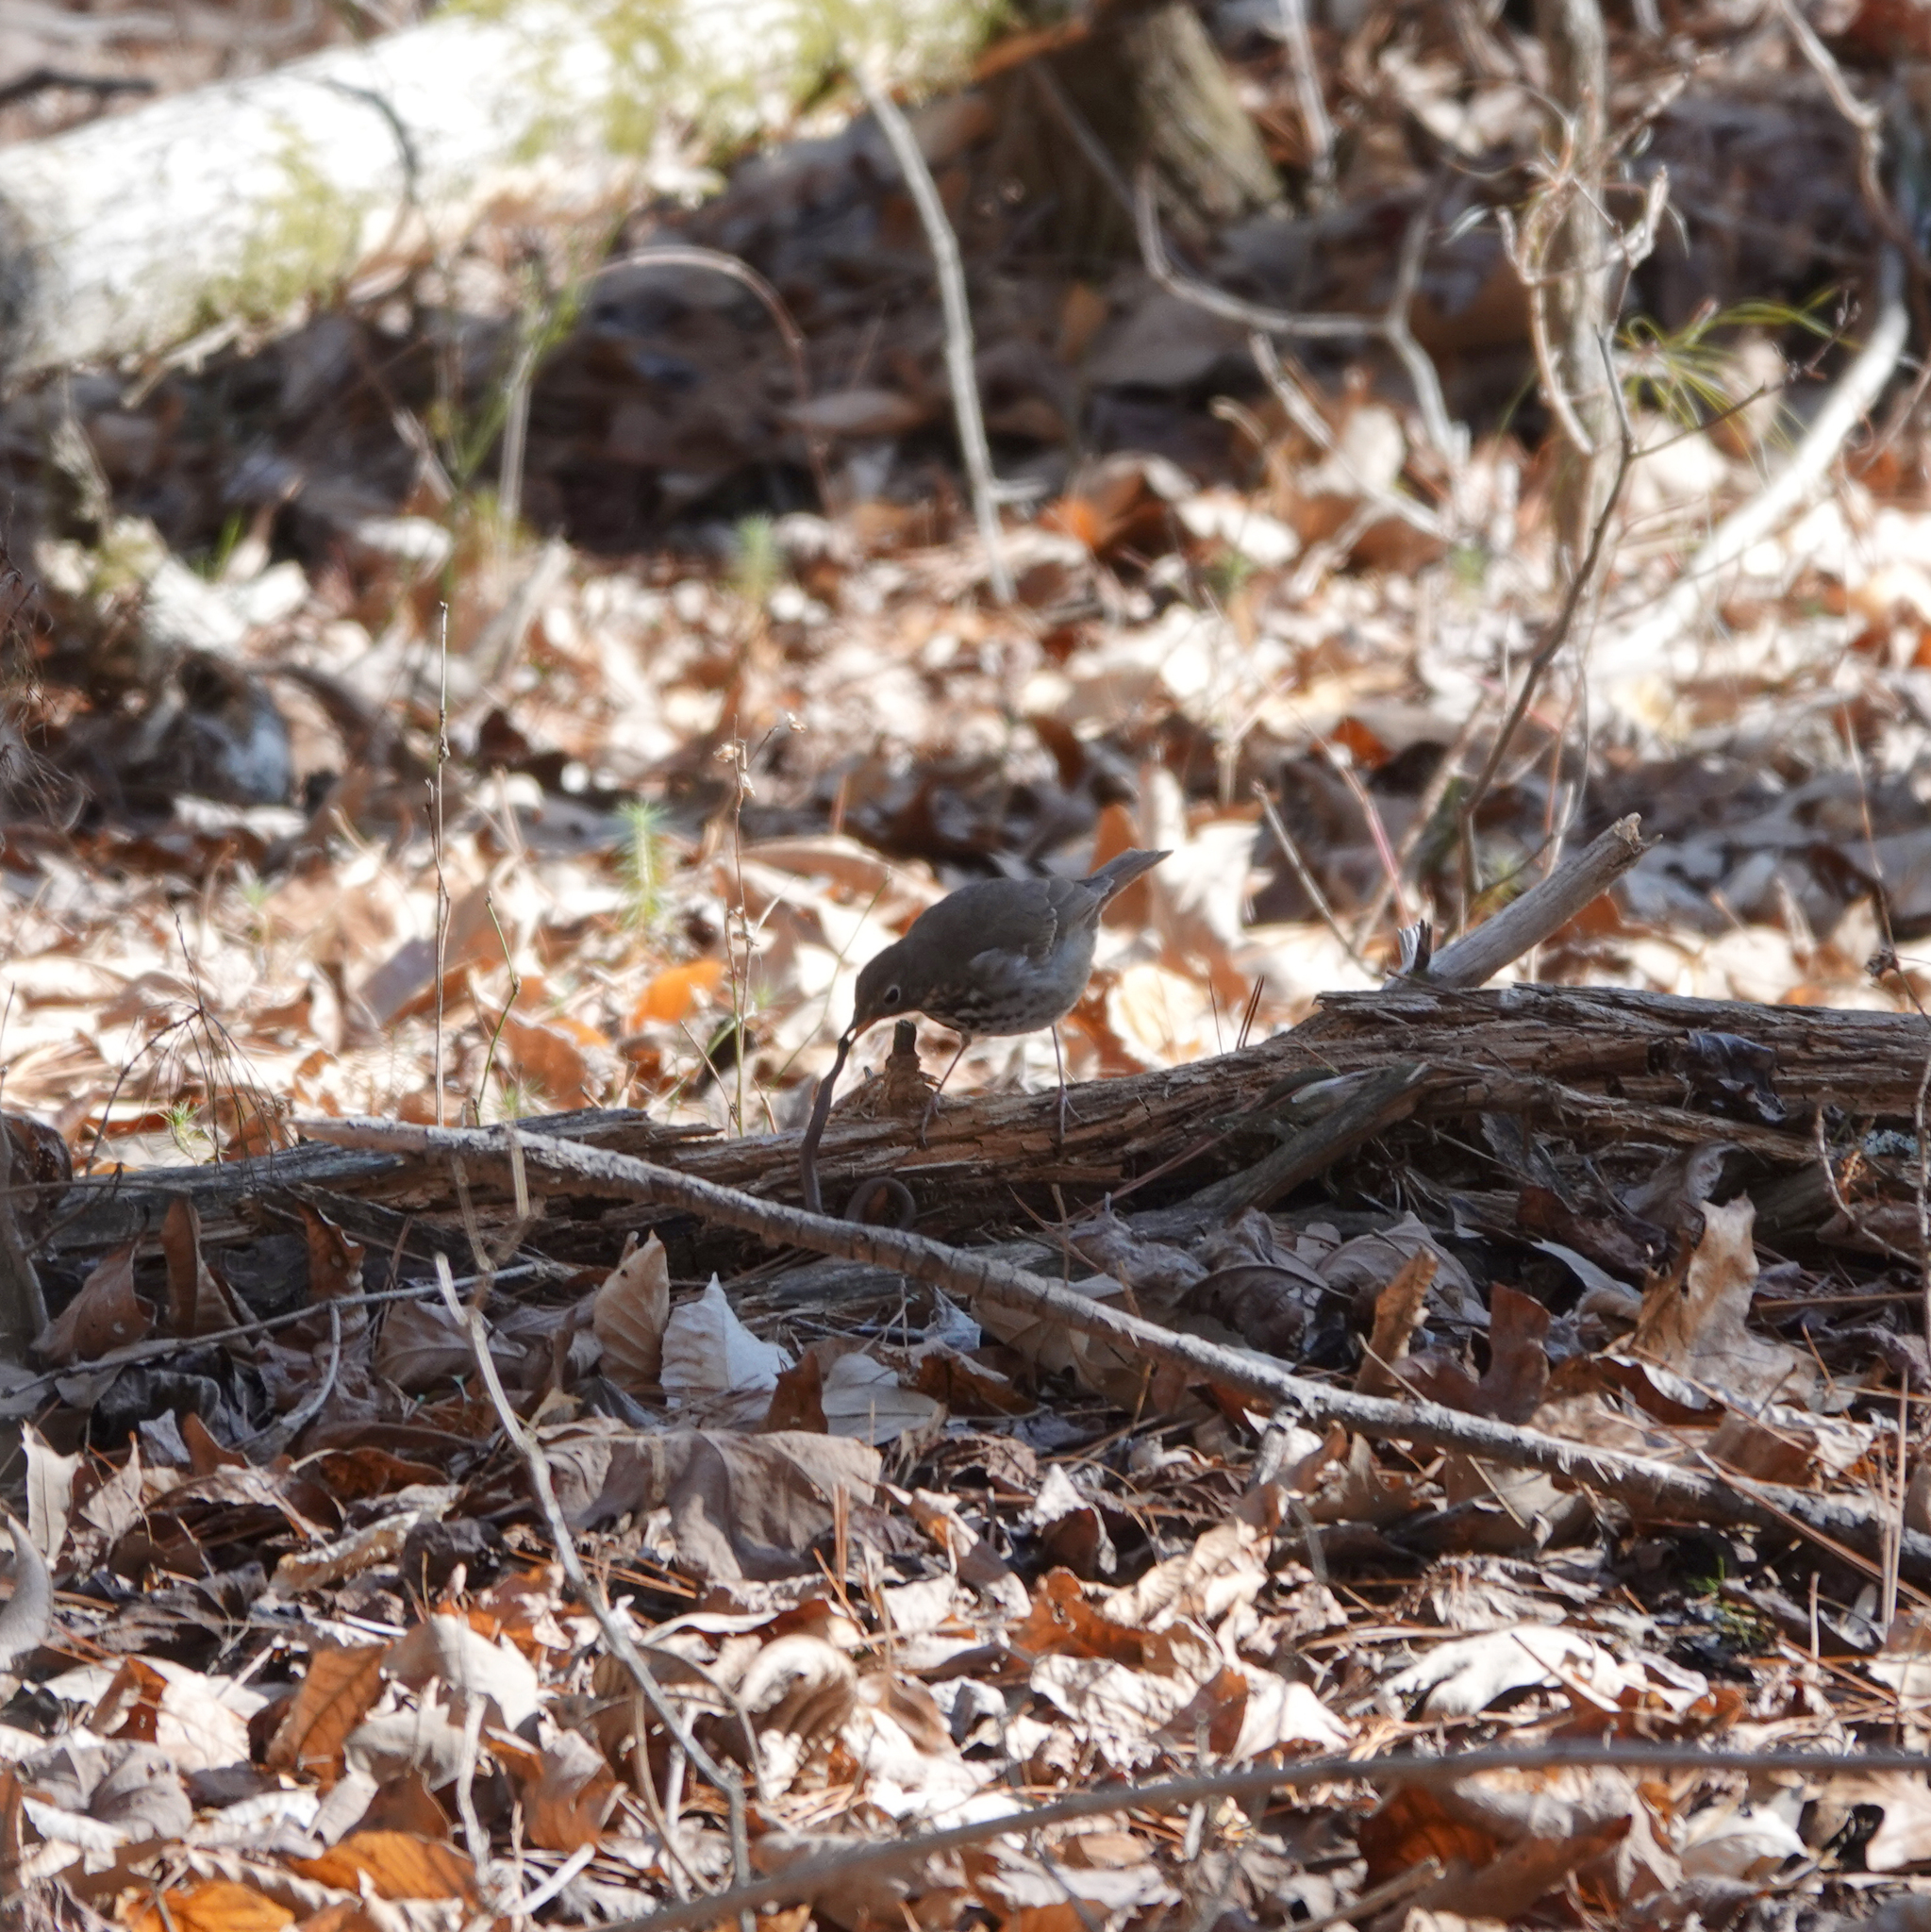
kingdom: Animalia
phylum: Chordata
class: Aves
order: Passeriformes
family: Turdidae
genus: Catharus
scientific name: Catharus guttatus
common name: Hermit thrush
